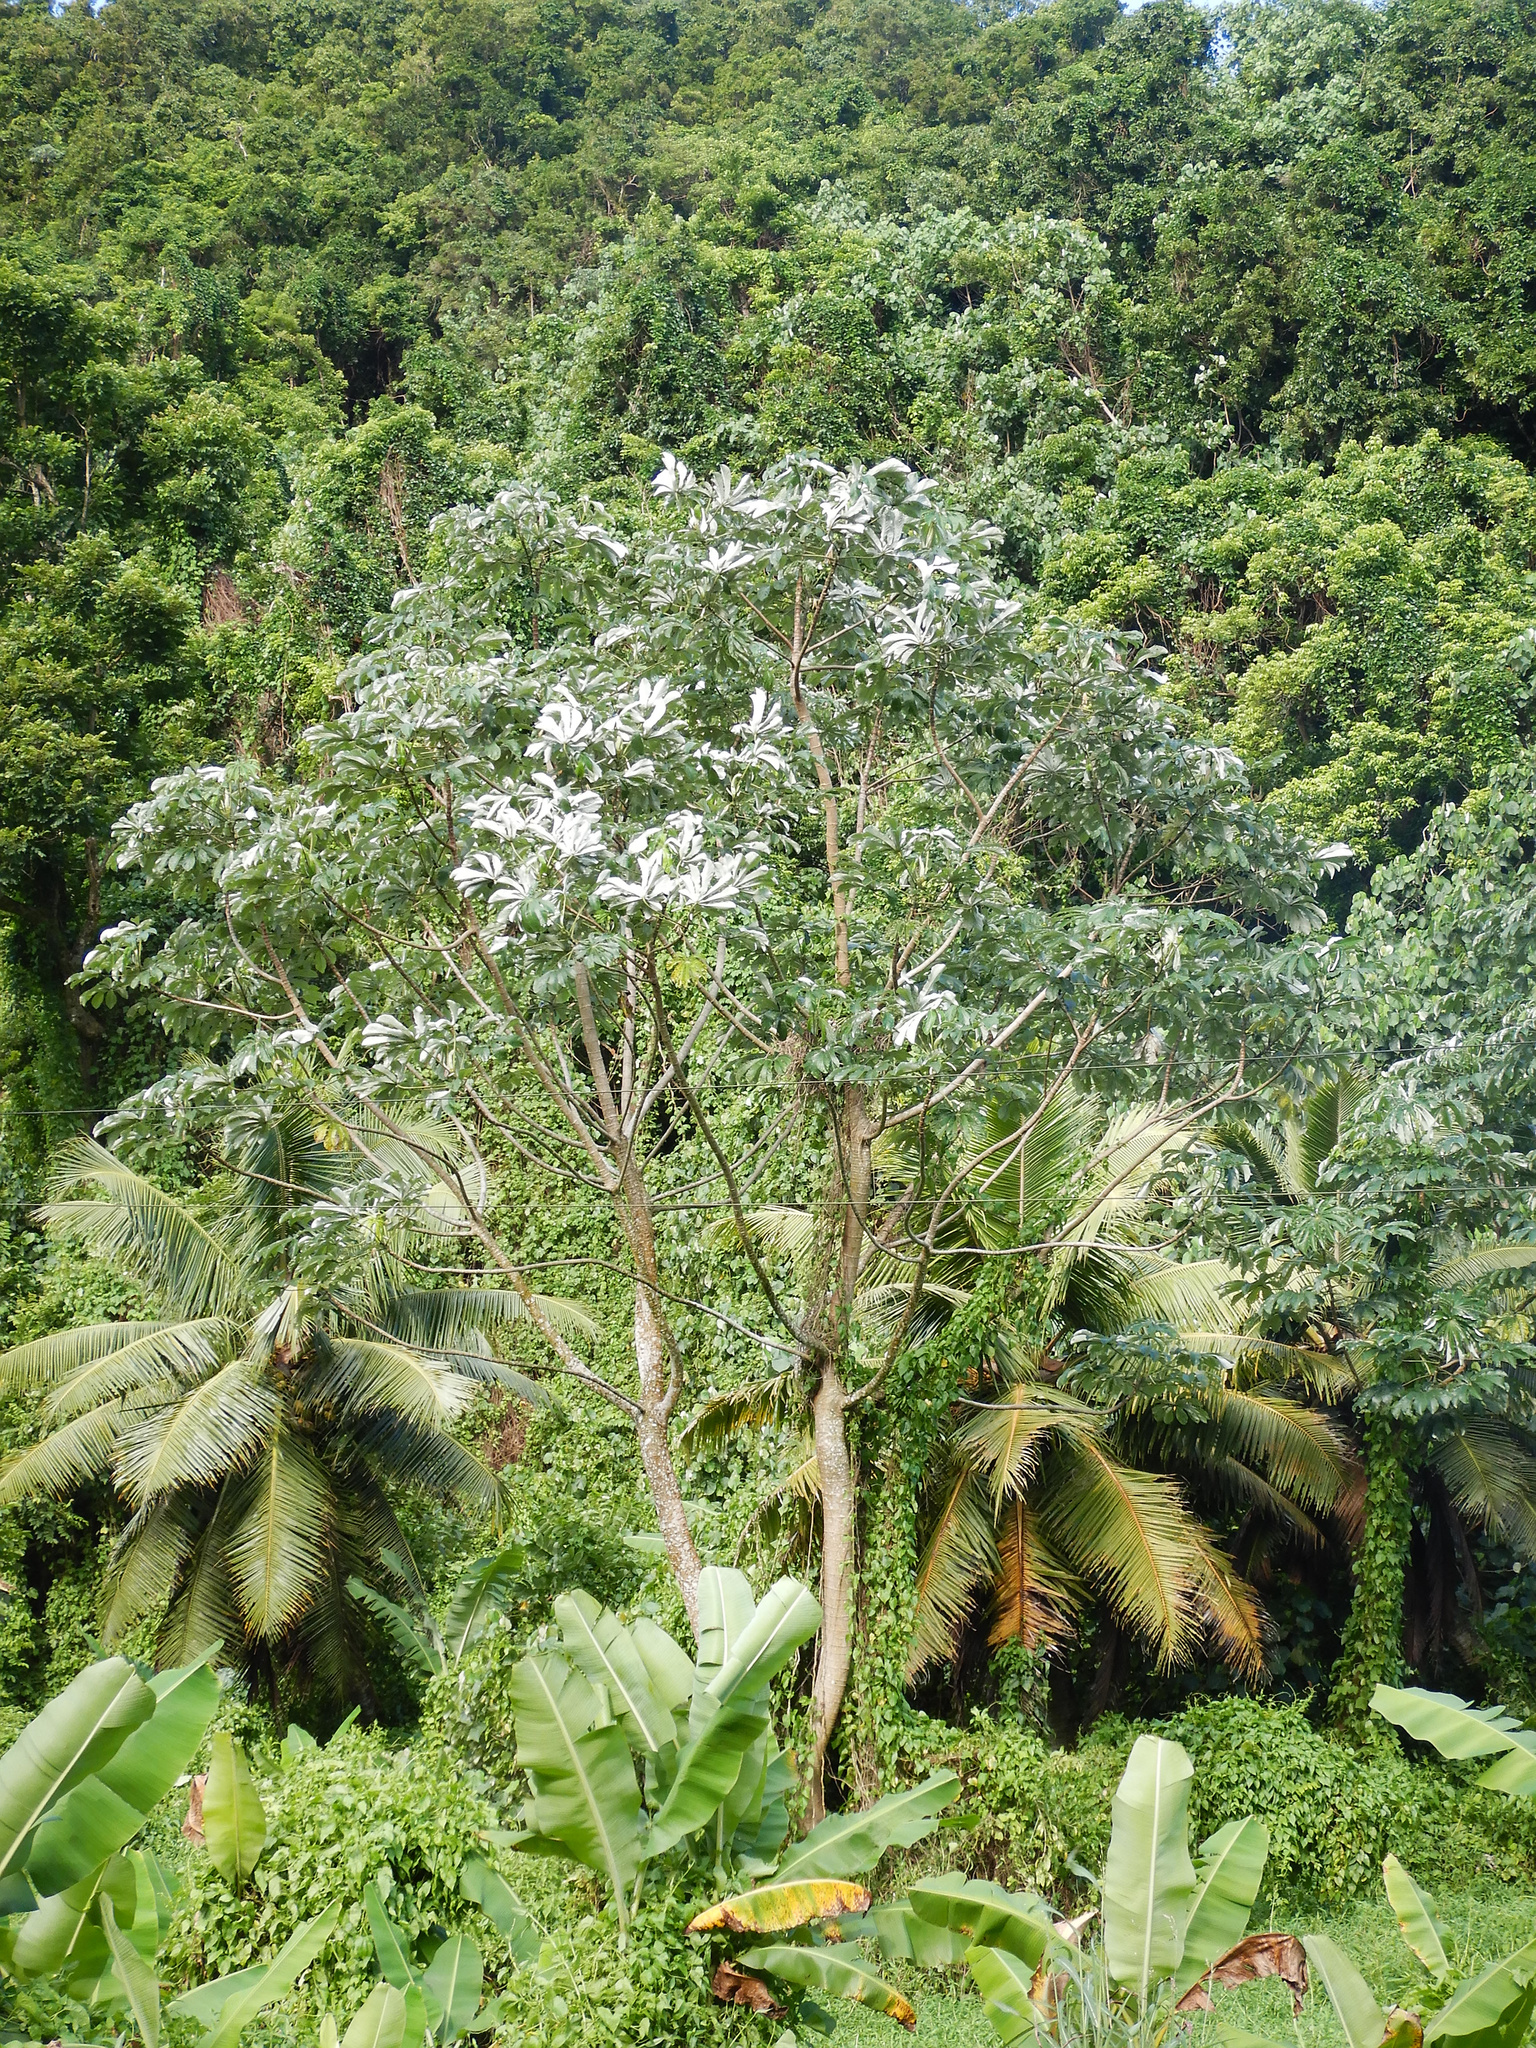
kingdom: Plantae
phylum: Tracheophyta
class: Magnoliopsida
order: Rosales
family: Urticaceae
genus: Cecropia
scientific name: Cecropia pachystachya
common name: Ambay pumpwood
